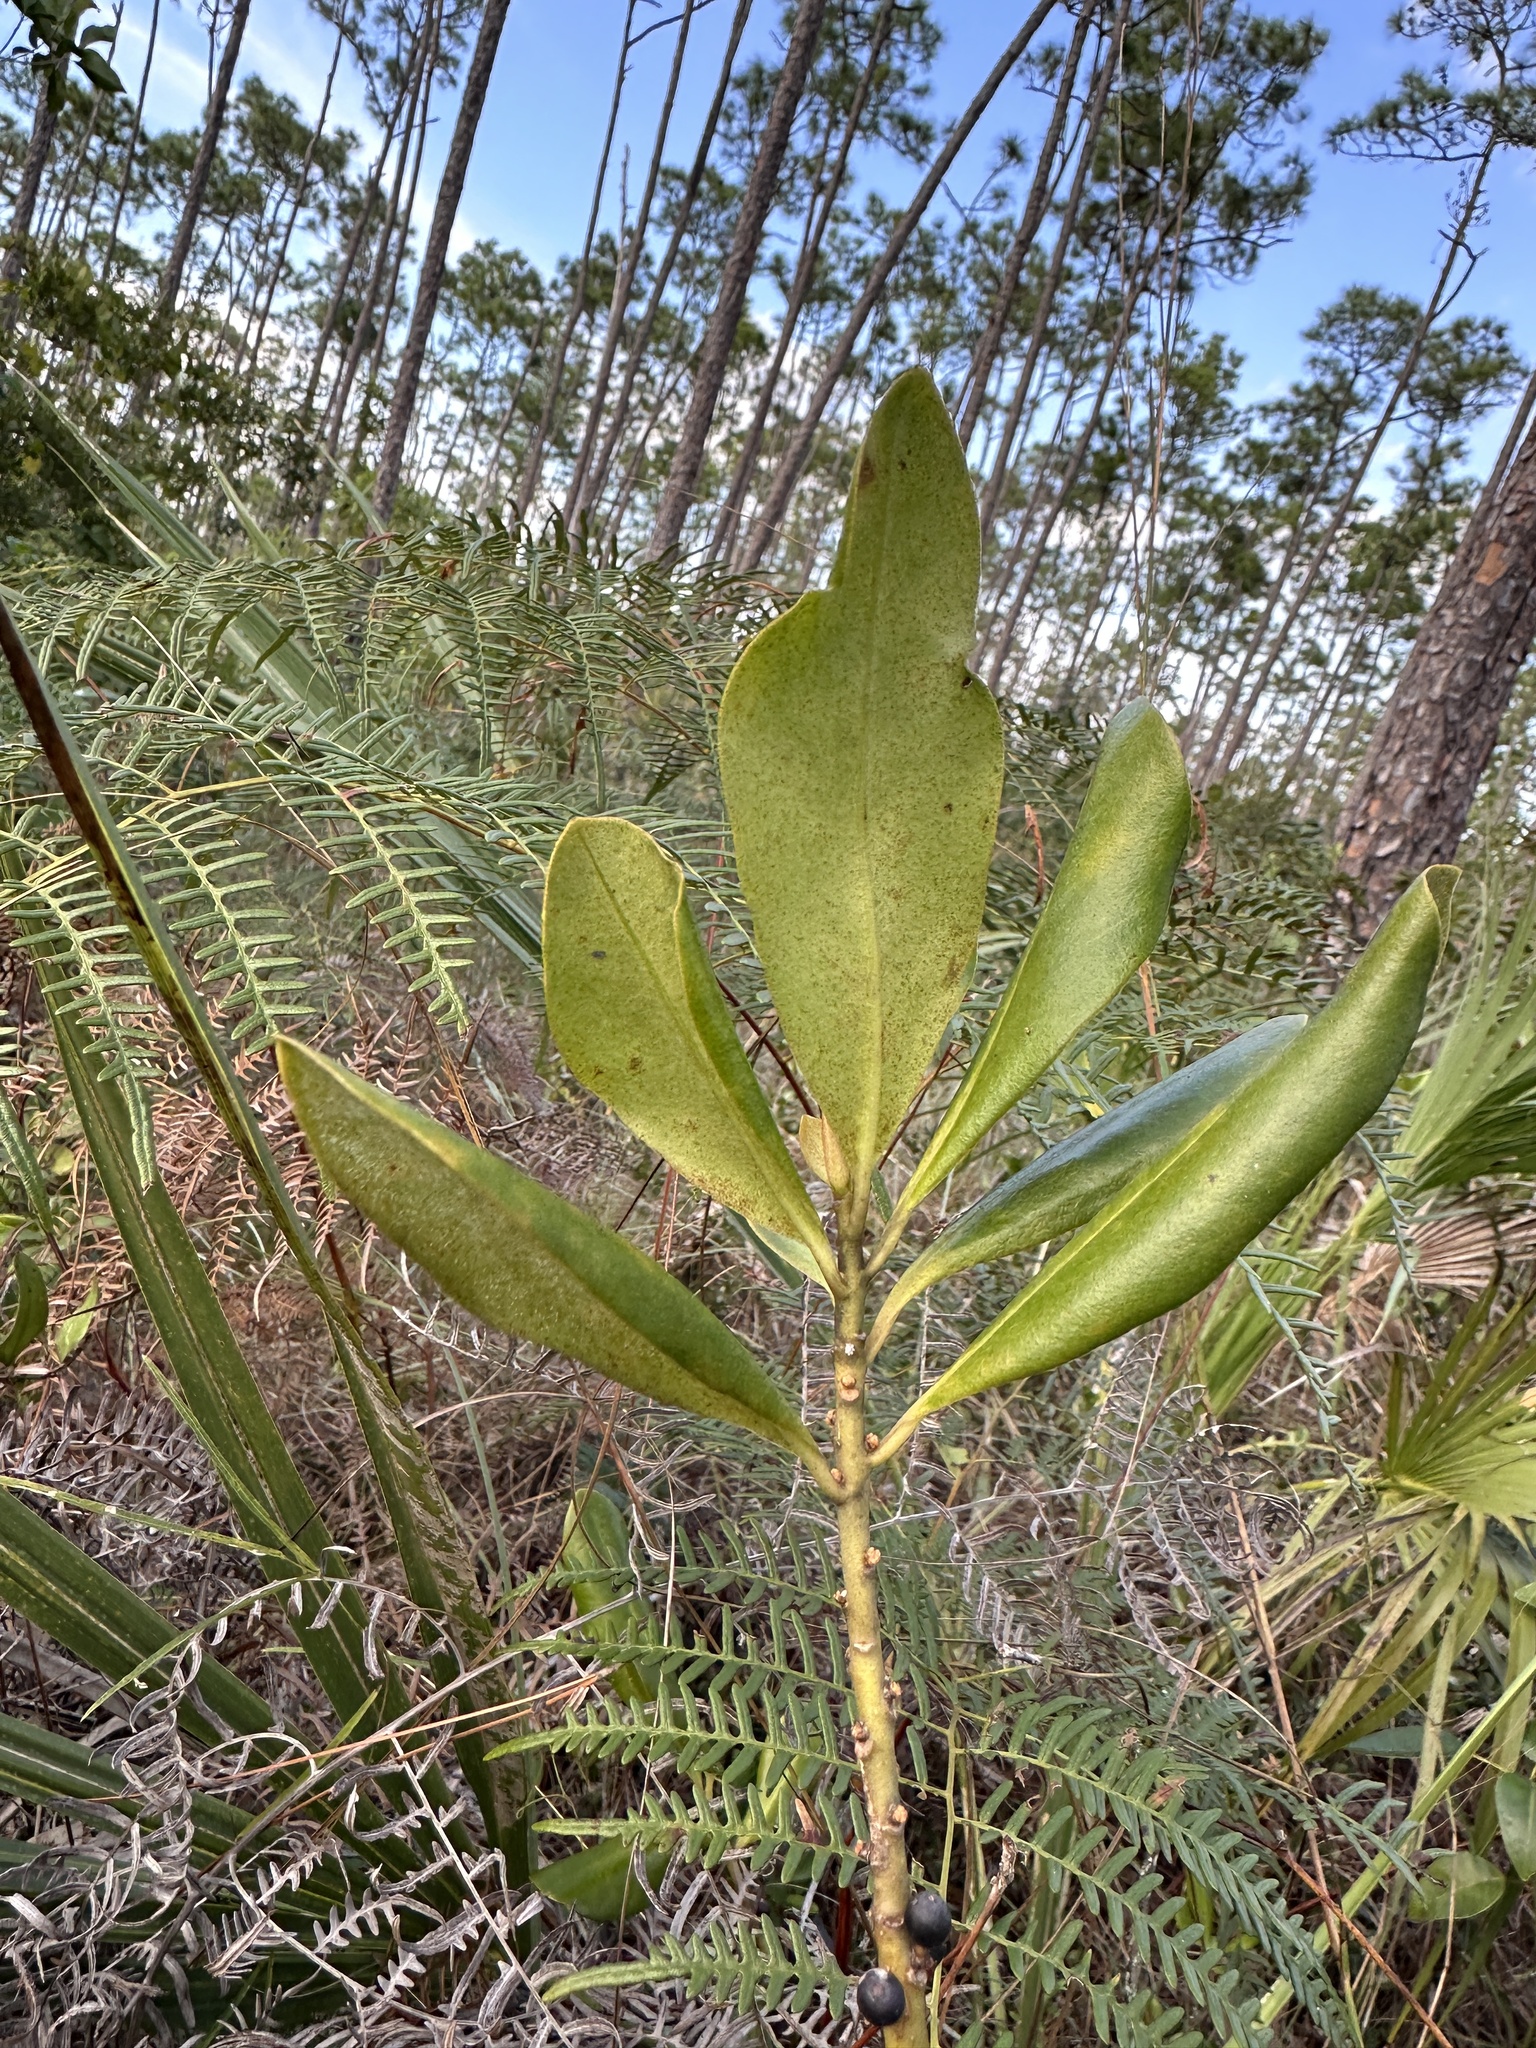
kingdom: Plantae
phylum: Tracheophyta
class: Magnoliopsida
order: Ericales
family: Primulaceae
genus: Myrsine
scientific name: Myrsine floridana
